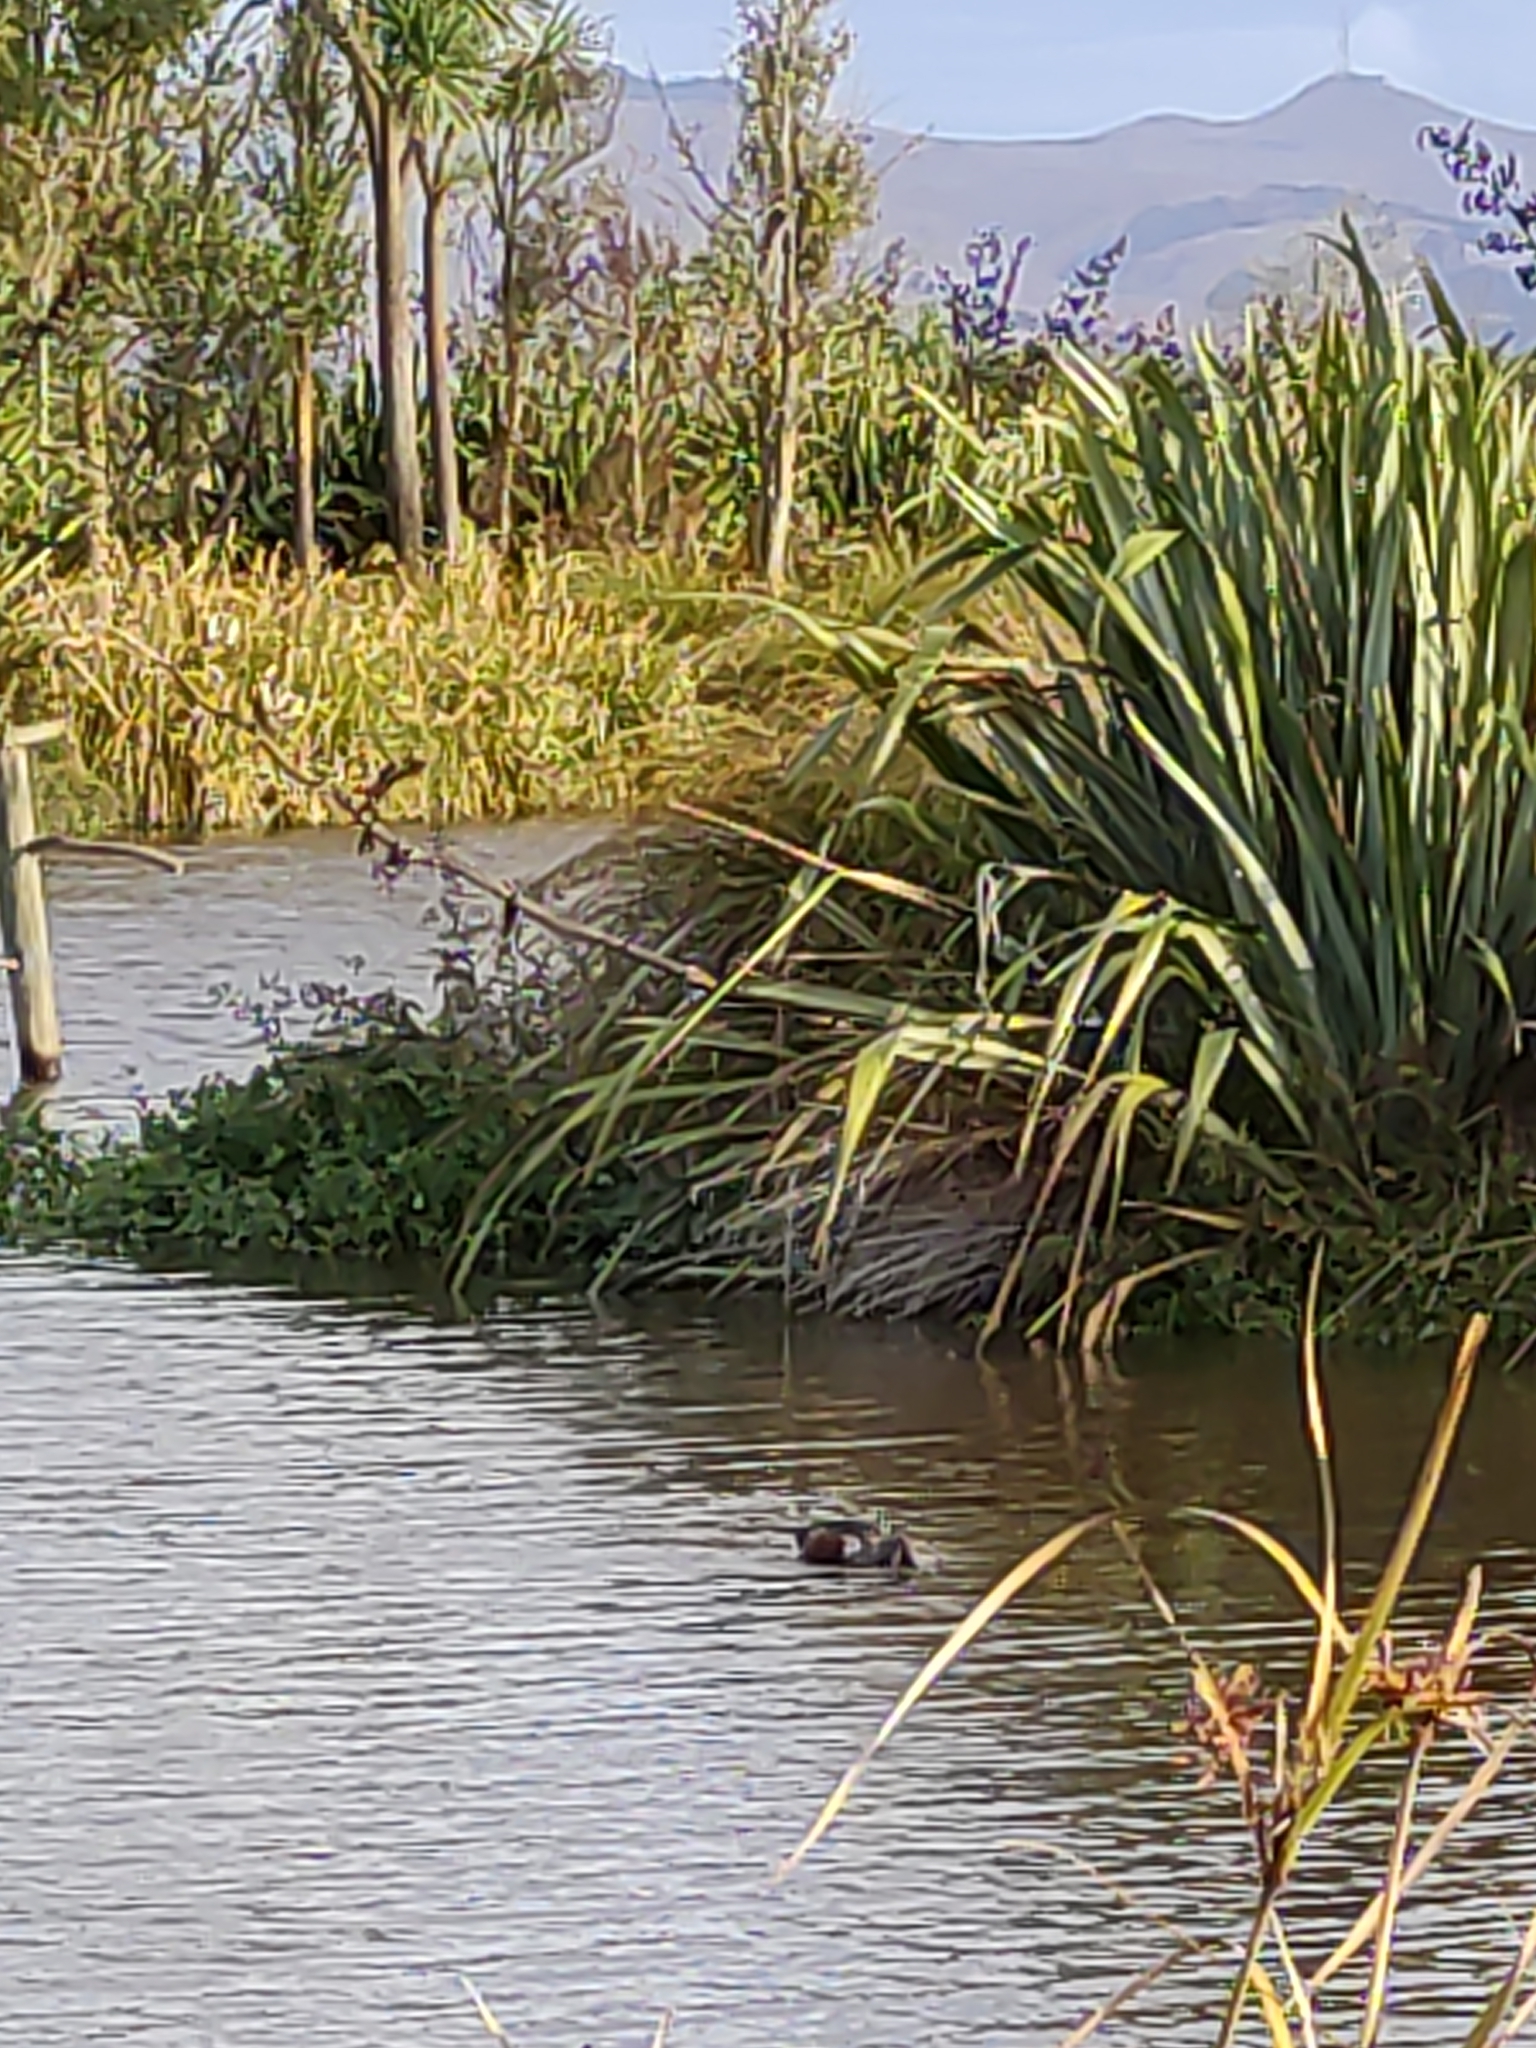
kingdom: Animalia
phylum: Chordata
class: Aves
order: Anseriformes
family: Anatidae
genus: Spatula
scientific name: Spatula rhynchotis
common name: Australian shoveler
